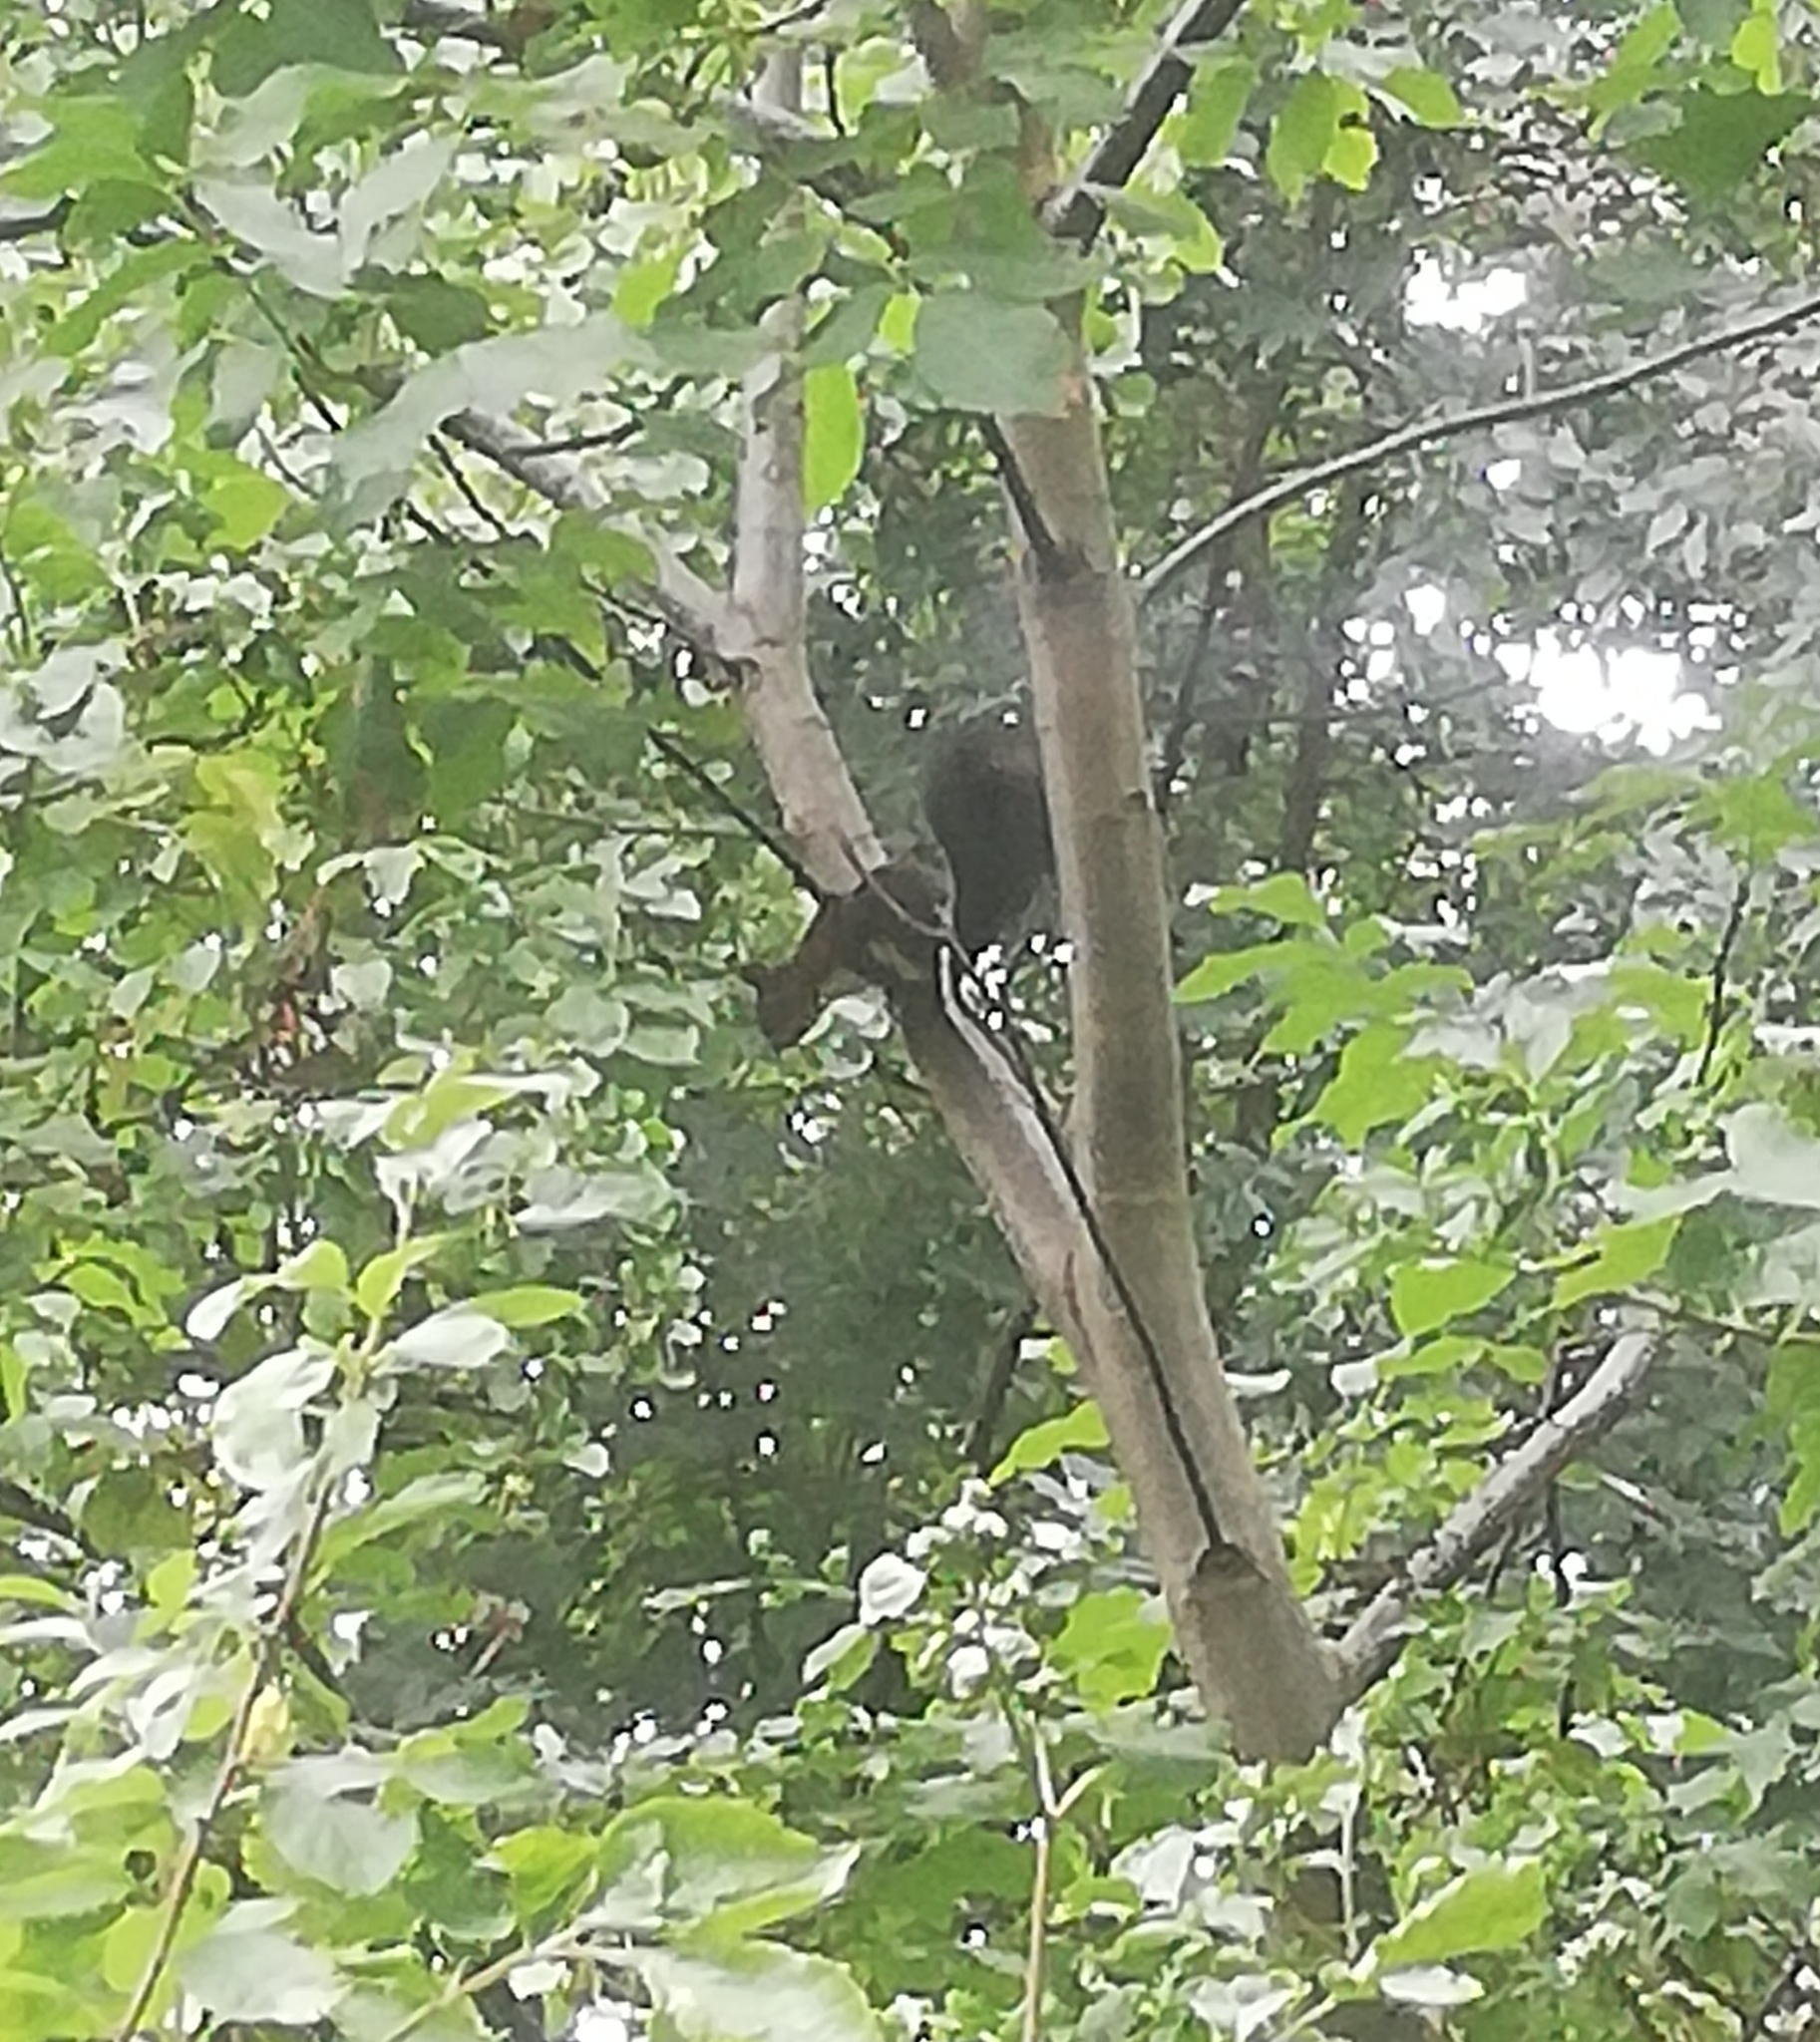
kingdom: Animalia
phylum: Chordata
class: Mammalia
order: Rodentia
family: Sciuridae
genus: Sciurus
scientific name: Sciurus vulgaris
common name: Eurasian red squirrel
